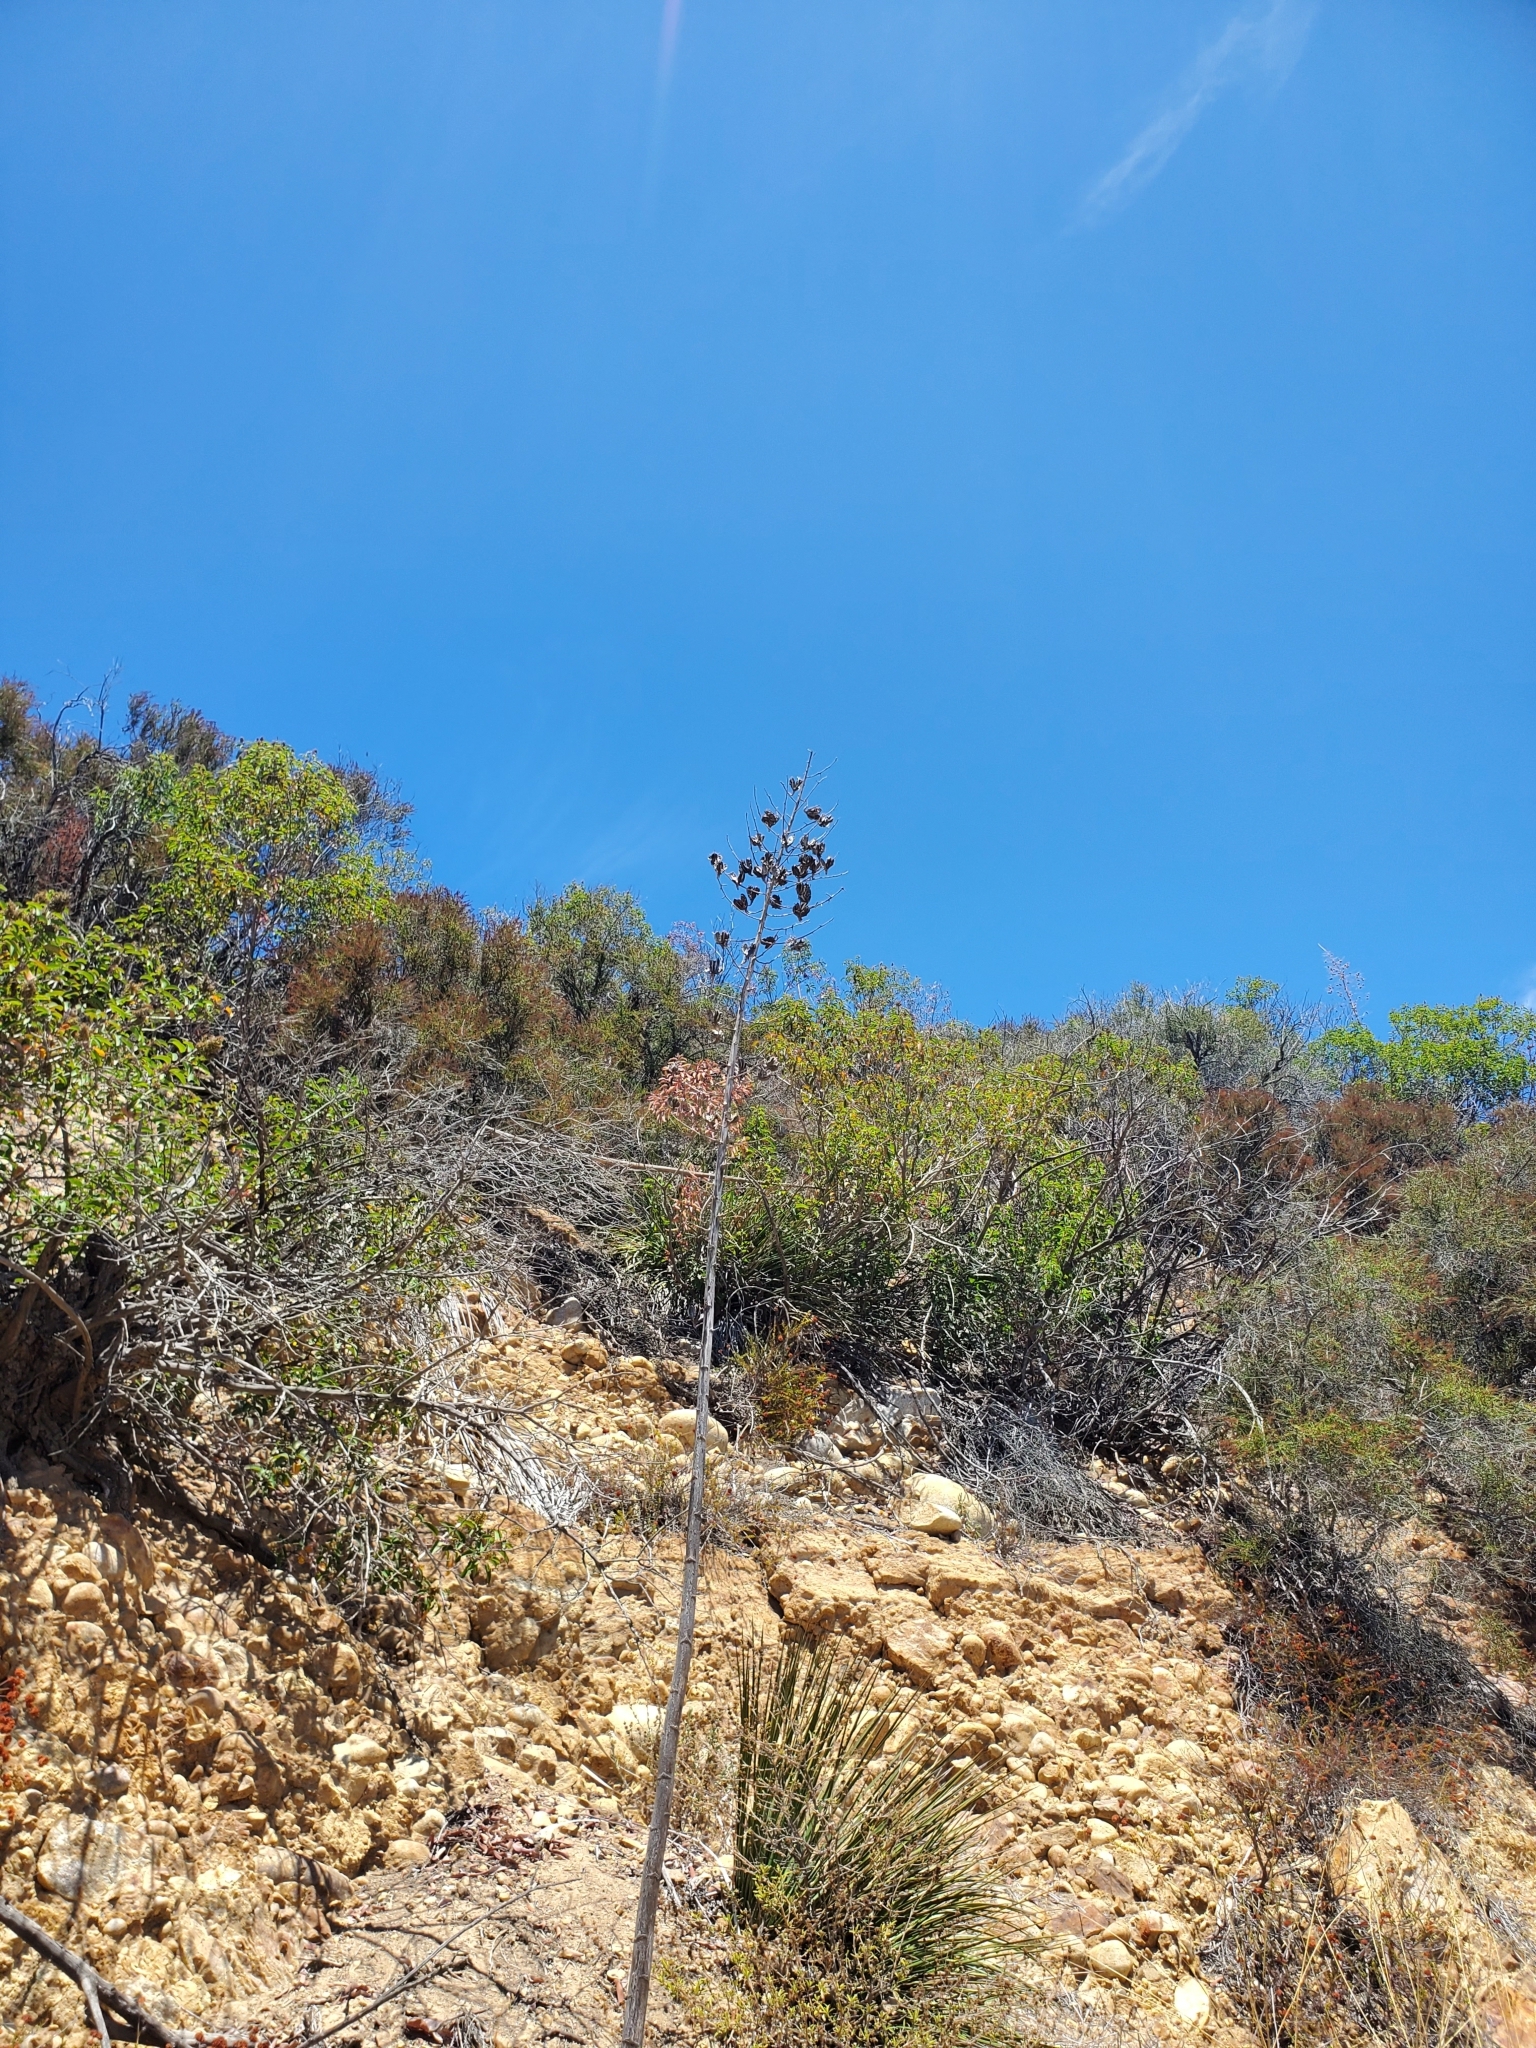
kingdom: Plantae
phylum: Tracheophyta
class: Liliopsida
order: Asparagales
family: Asparagaceae
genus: Hesperoyucca
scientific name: Hesperoyucca whipplei
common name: Our lord's-candle
